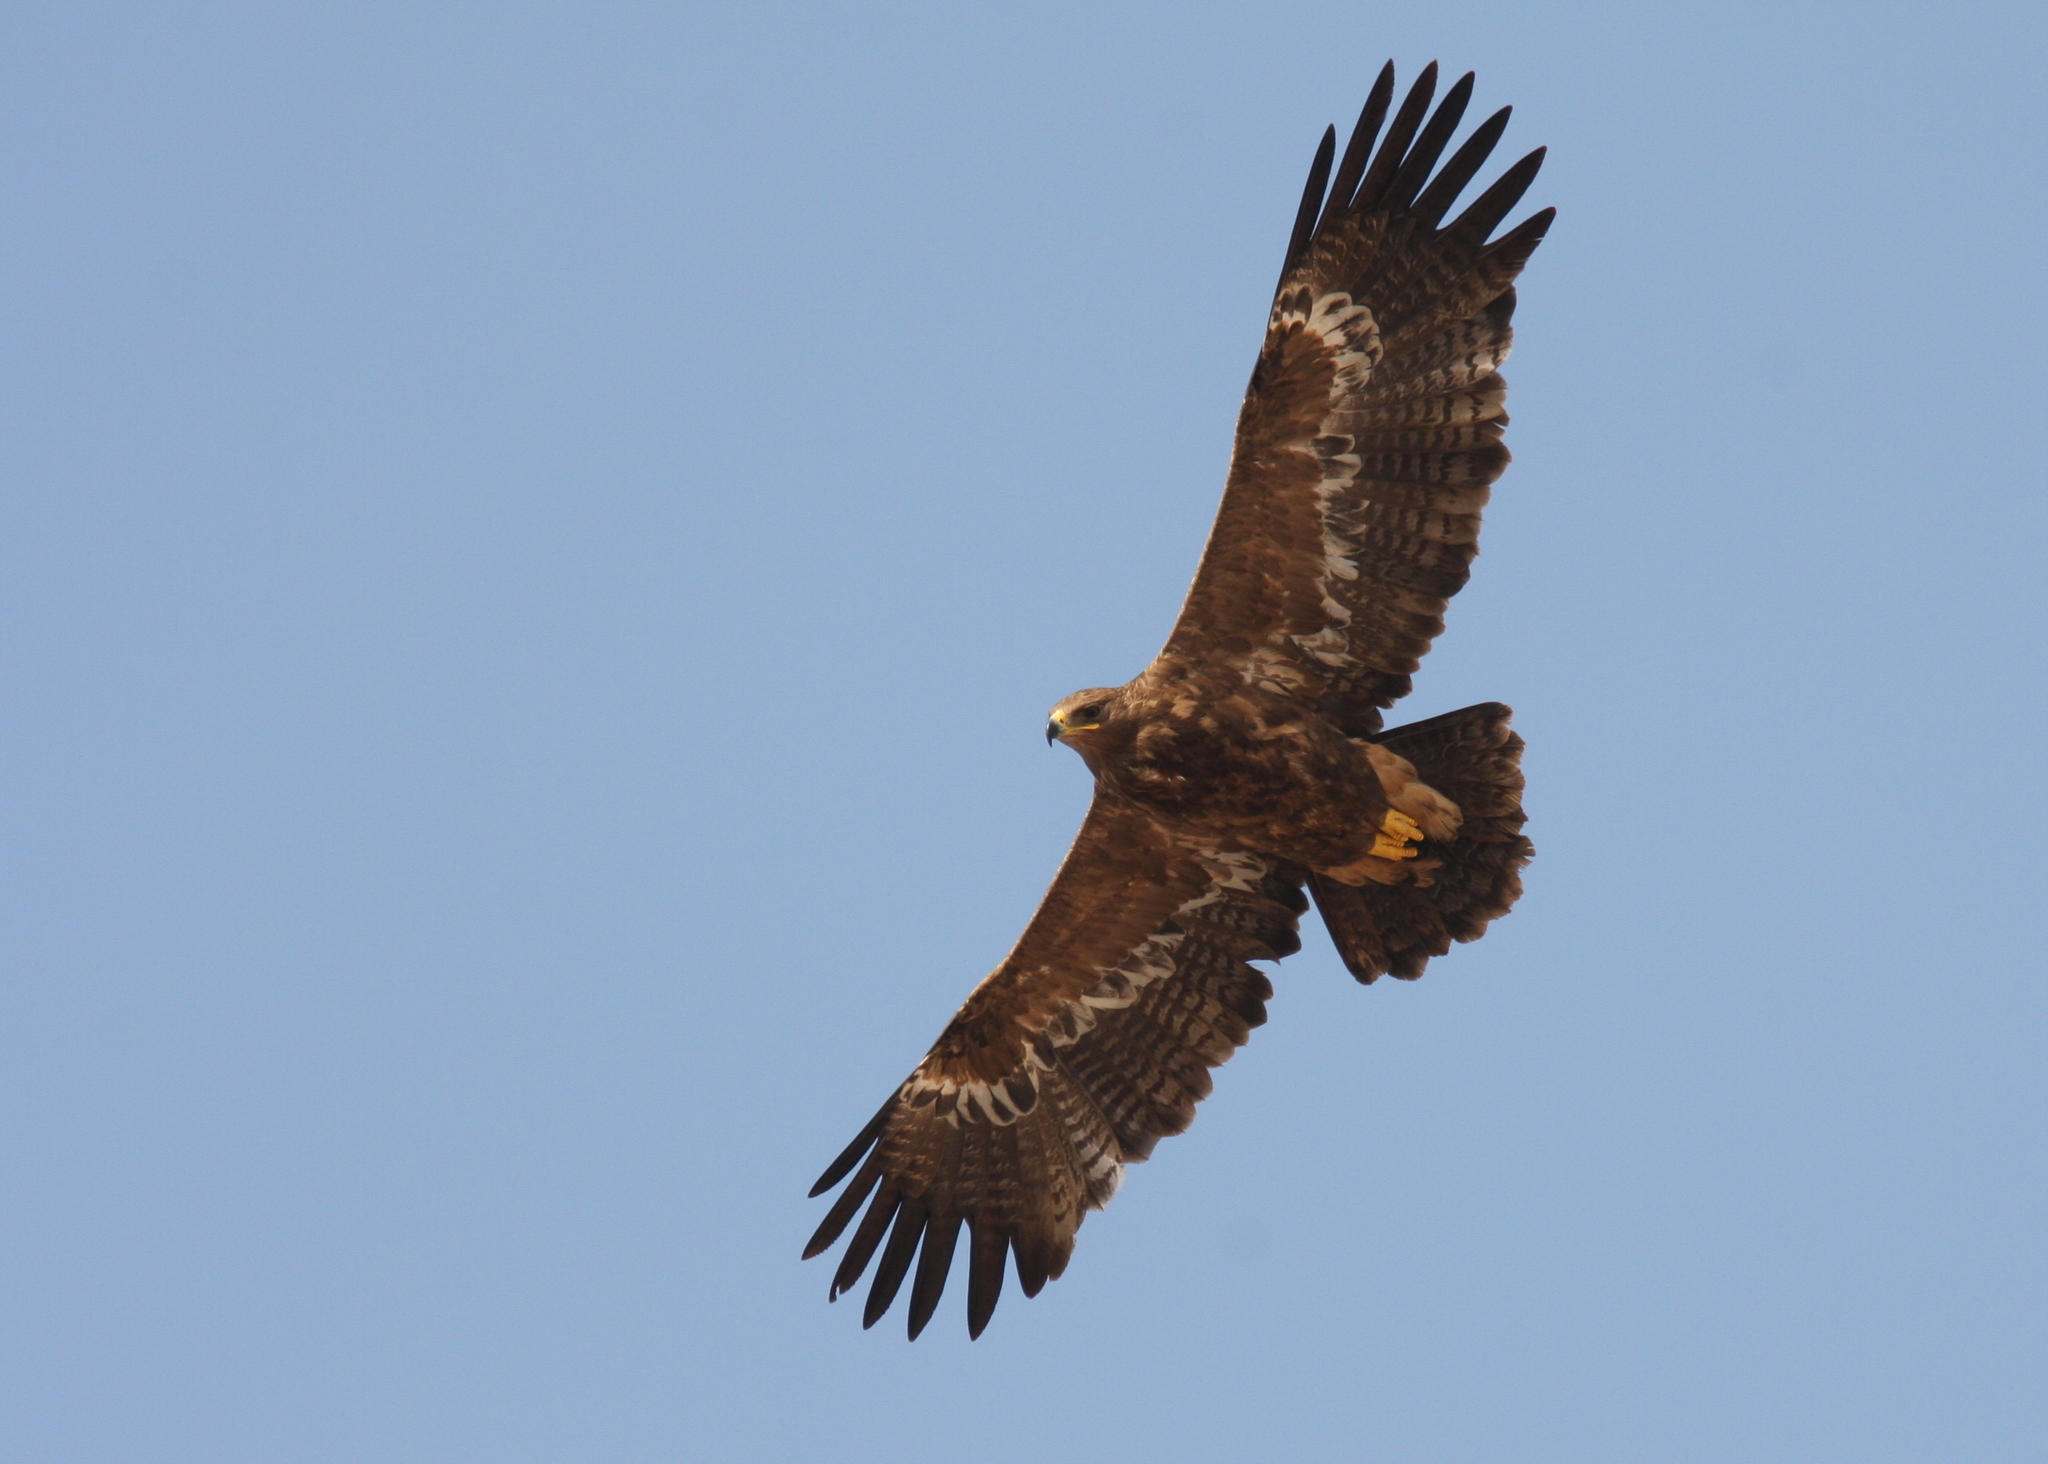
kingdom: Animalia
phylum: Chordata
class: Aves
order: Accipitriformes
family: Accipitridae
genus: Aquila
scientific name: Aquila nipalensis
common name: Steppe eagle
